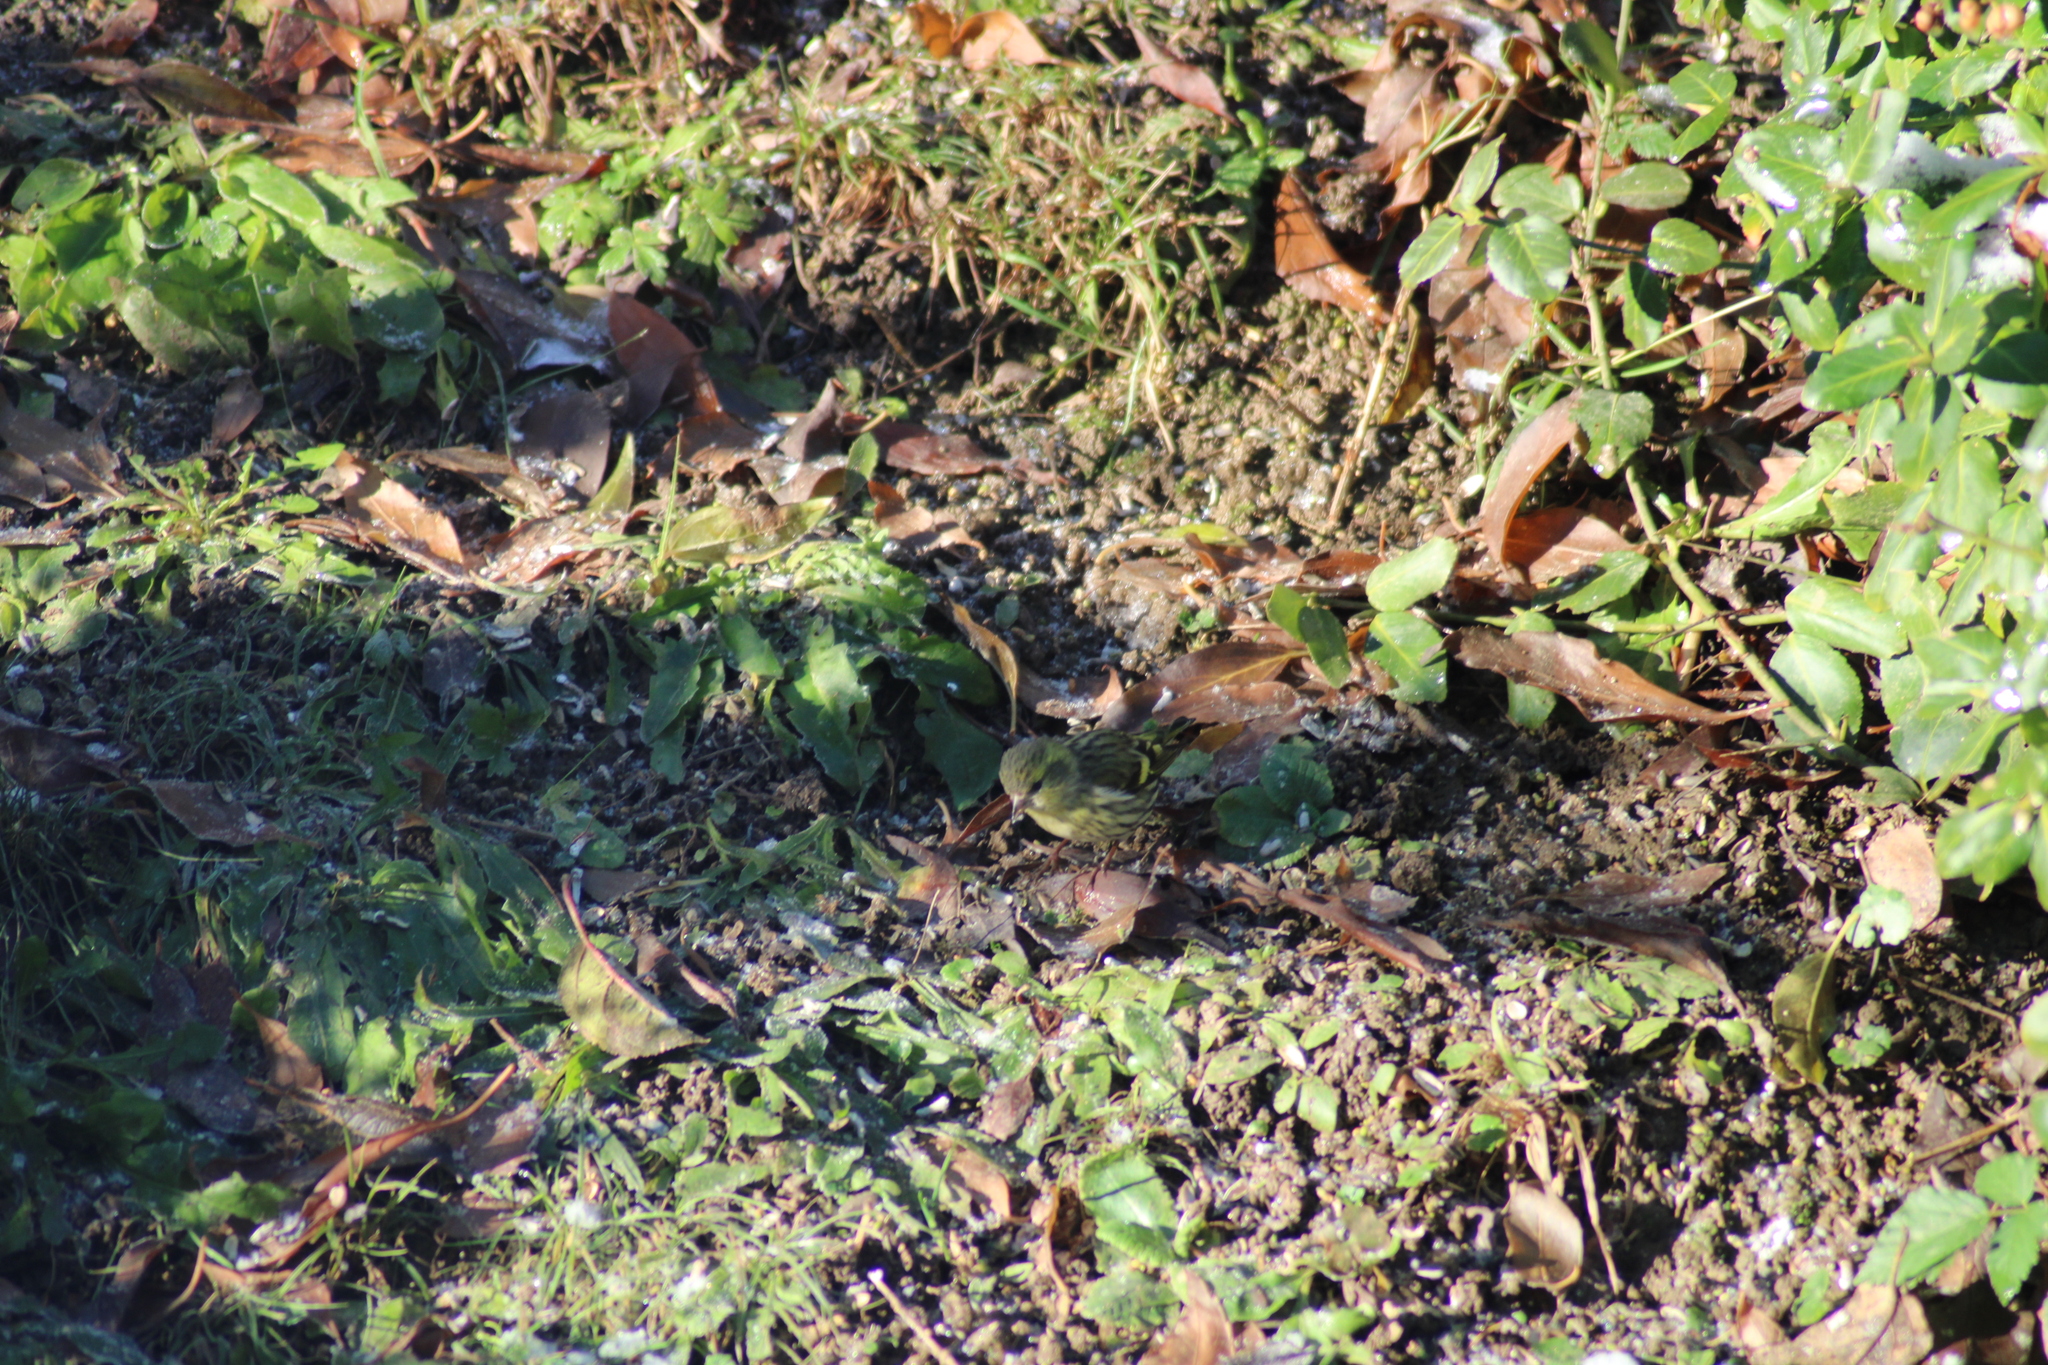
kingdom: Animalia
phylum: Chordata
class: Aves
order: Passeriformes
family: Fringillidae
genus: Spinus
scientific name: Spinus spinus
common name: Eurasian siskin
